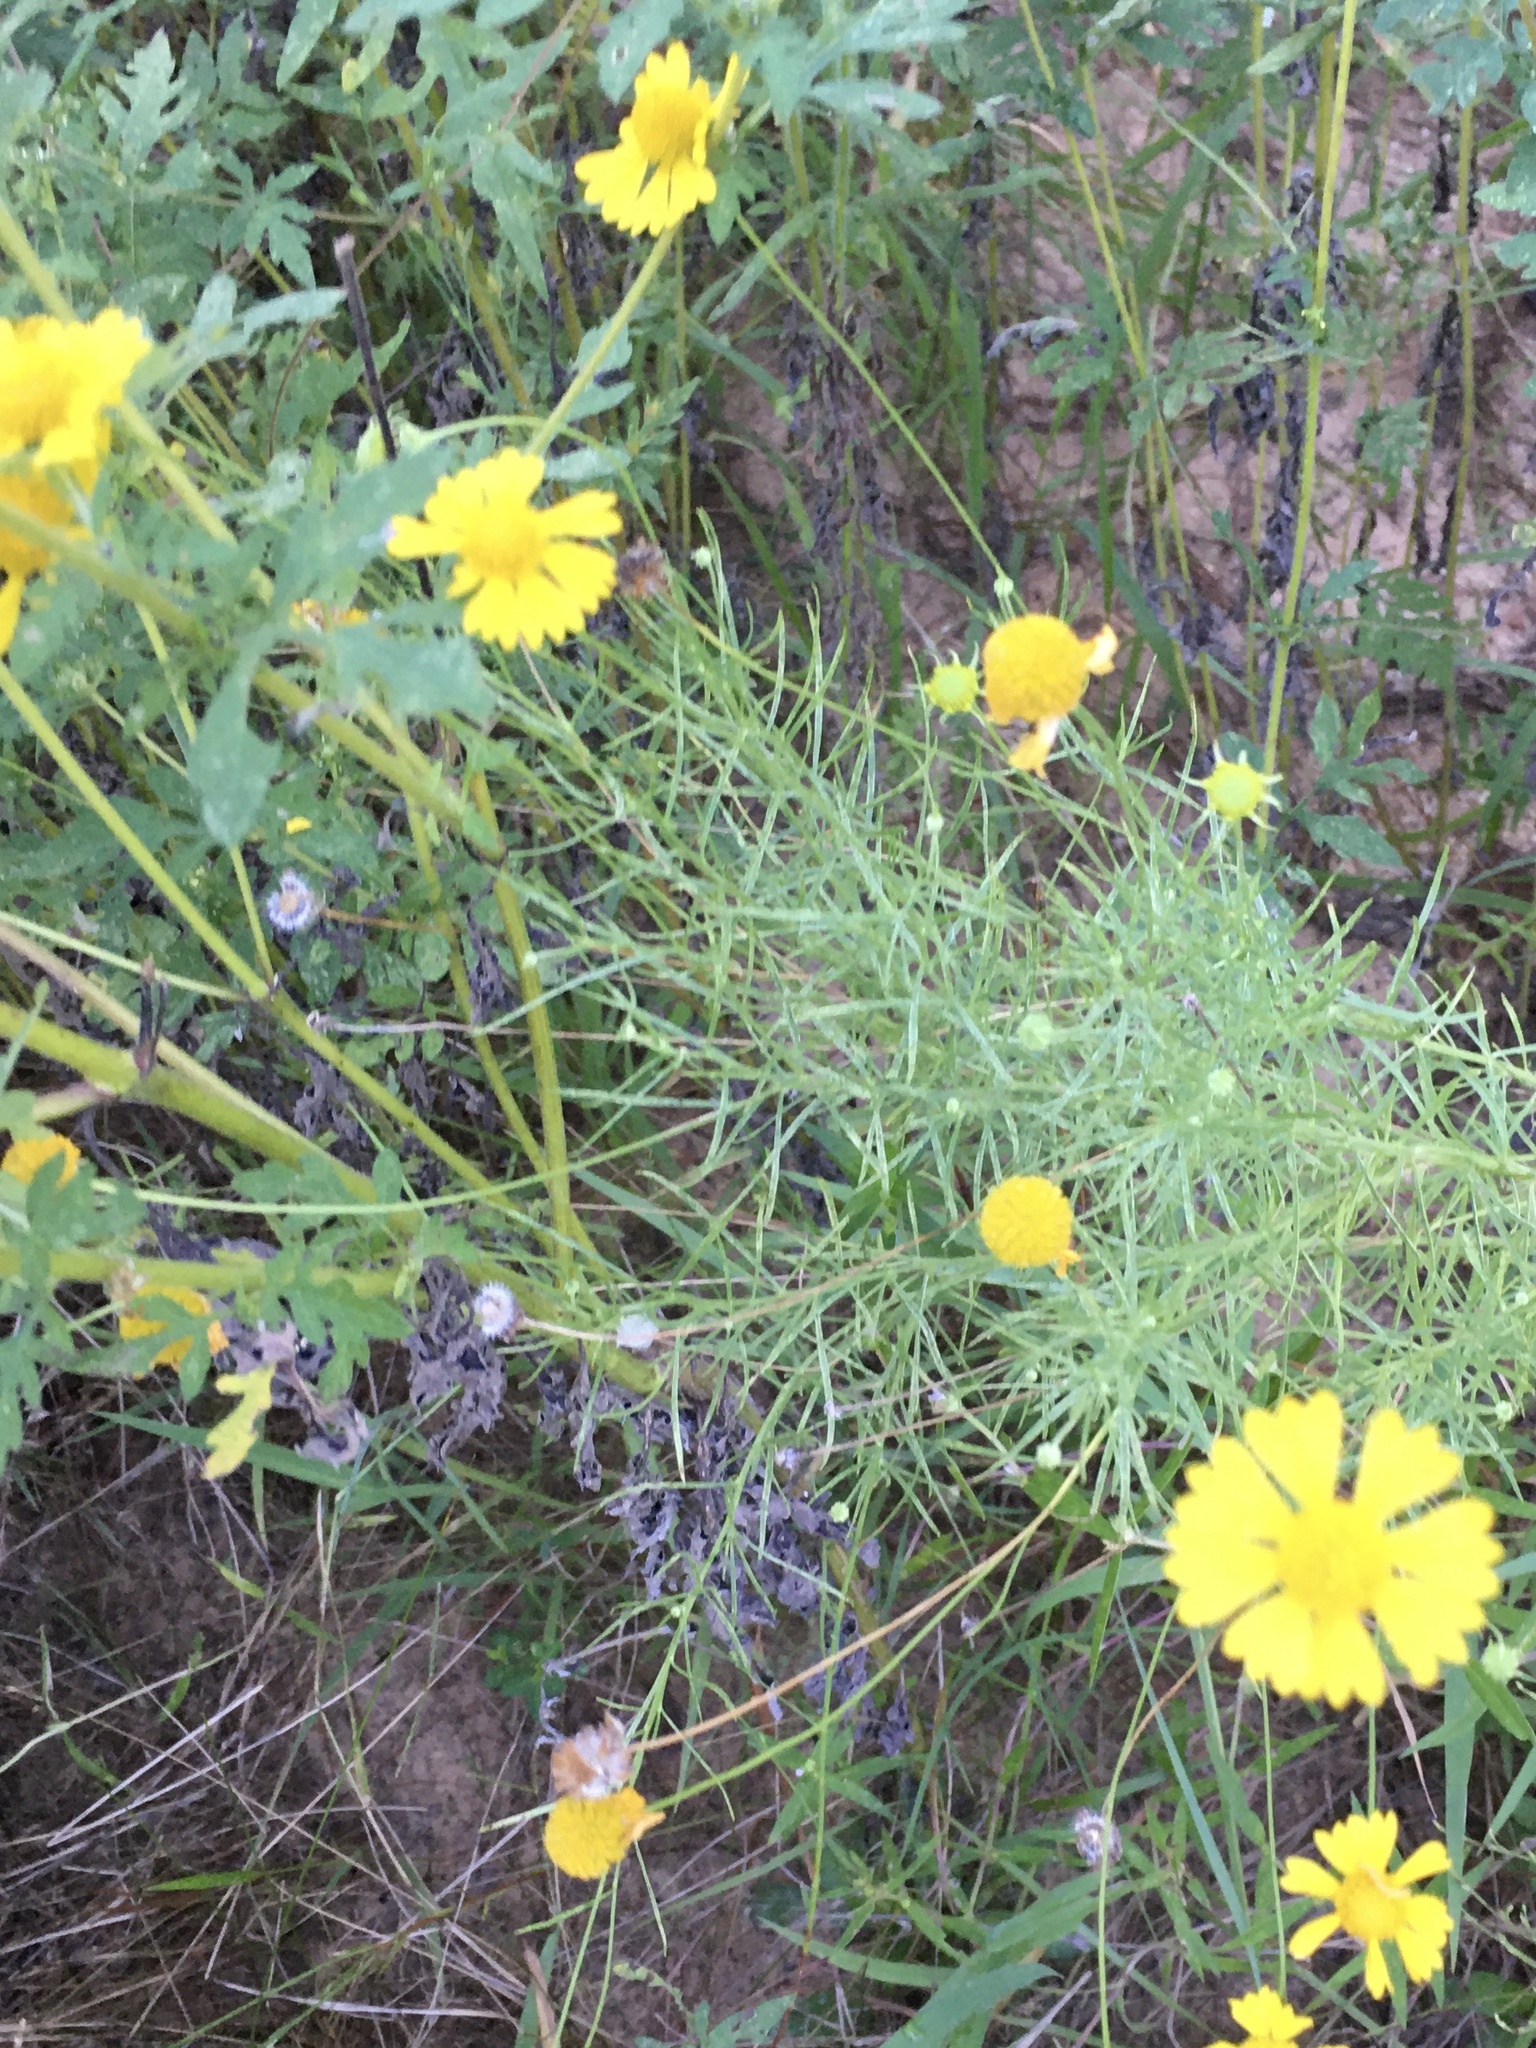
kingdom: Plantae
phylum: Tracheophyta
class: Magnoliopsida
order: Asterales
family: Asteraceae
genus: Helenium
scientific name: Helenium amarum
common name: Bitter sneezeweed
